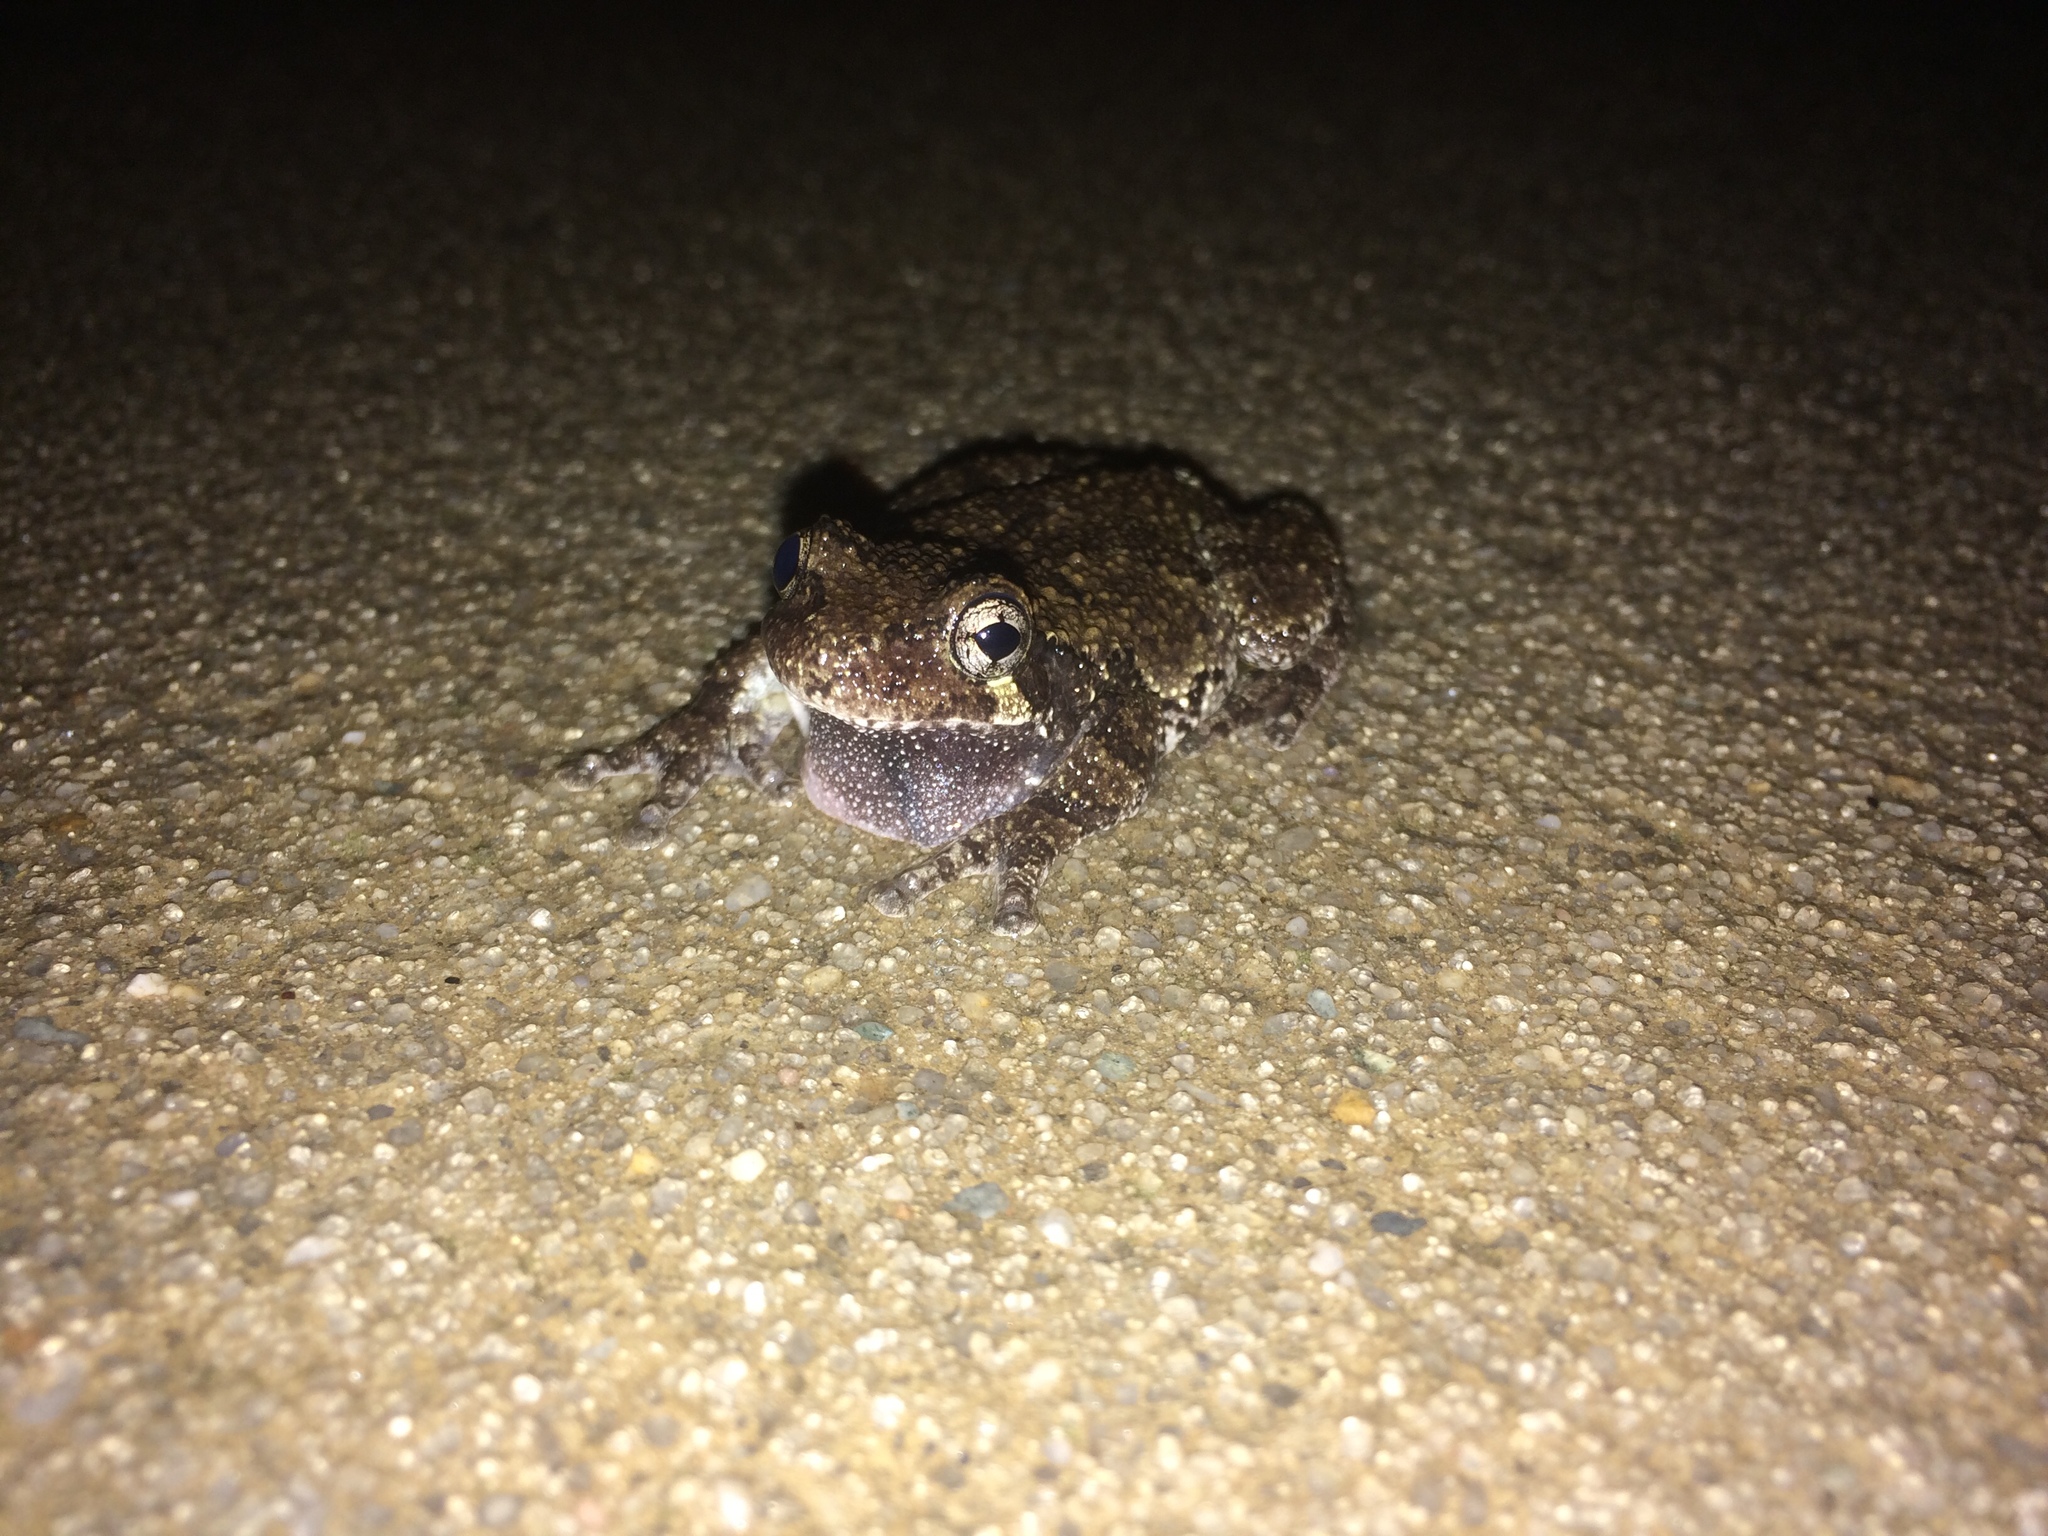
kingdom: Animalia
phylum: Chordata
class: Amphibia
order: Anura
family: Hylidae
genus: Dryophytes
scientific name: Dryophytes chrysoscelis
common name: Cope's gray treefrog
